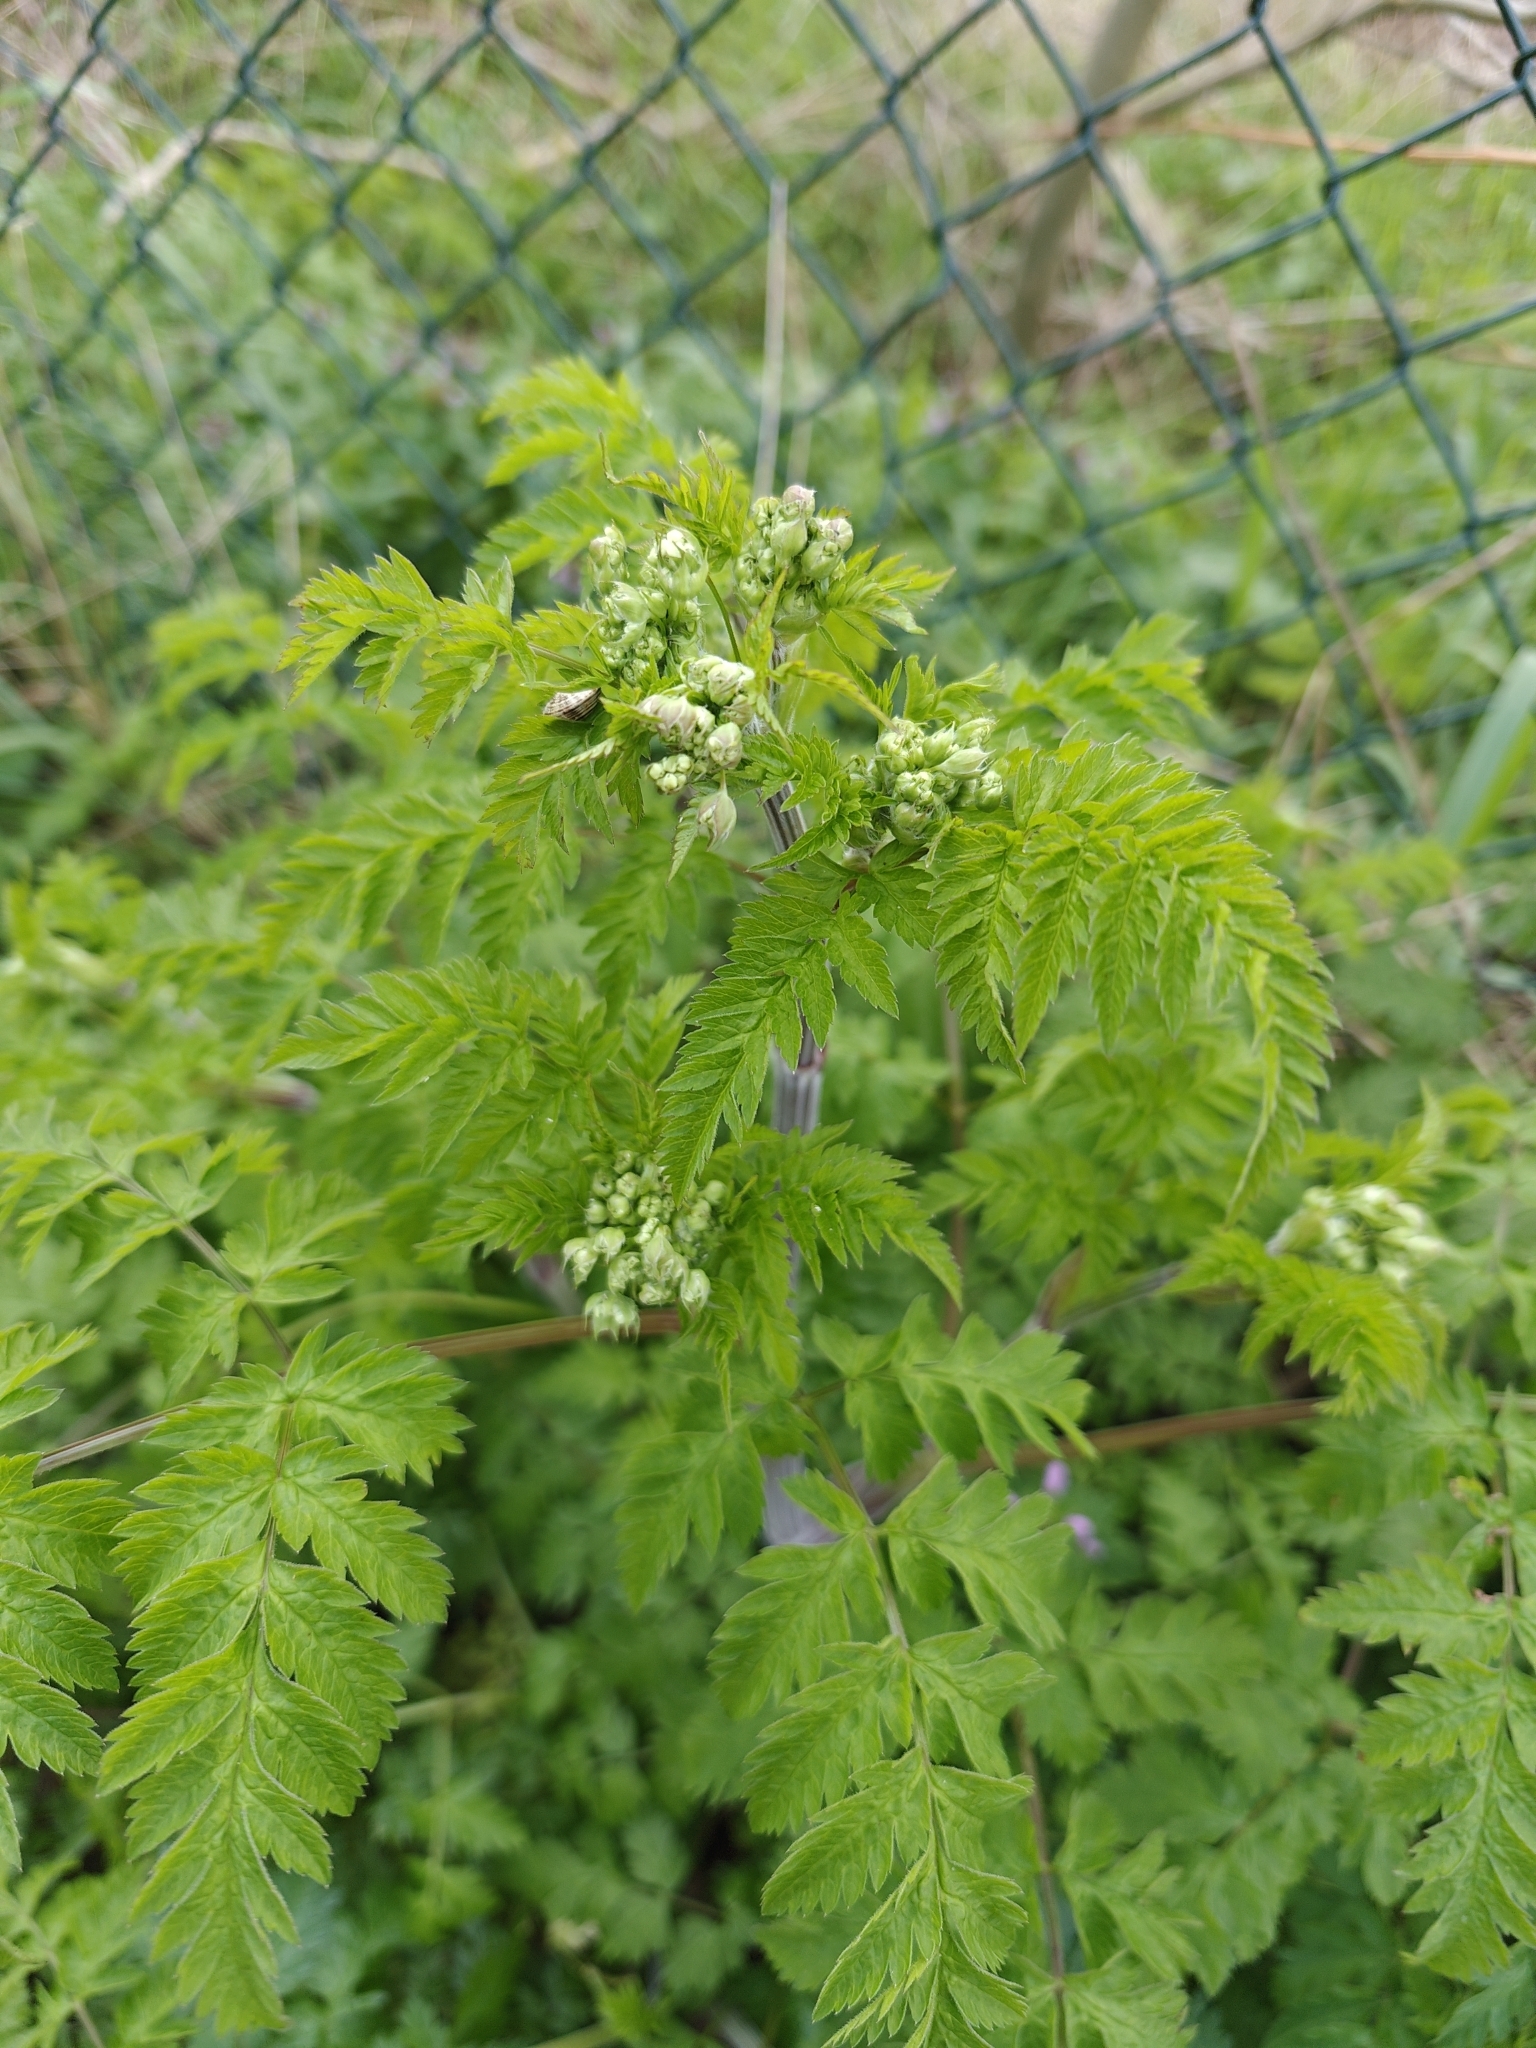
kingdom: Plantae
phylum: Tracheophyta
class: Magnoliopsida
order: Apiales
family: Apiaceae
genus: Anthriscus
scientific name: Anthriscus sylvestris
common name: Cow parsley
